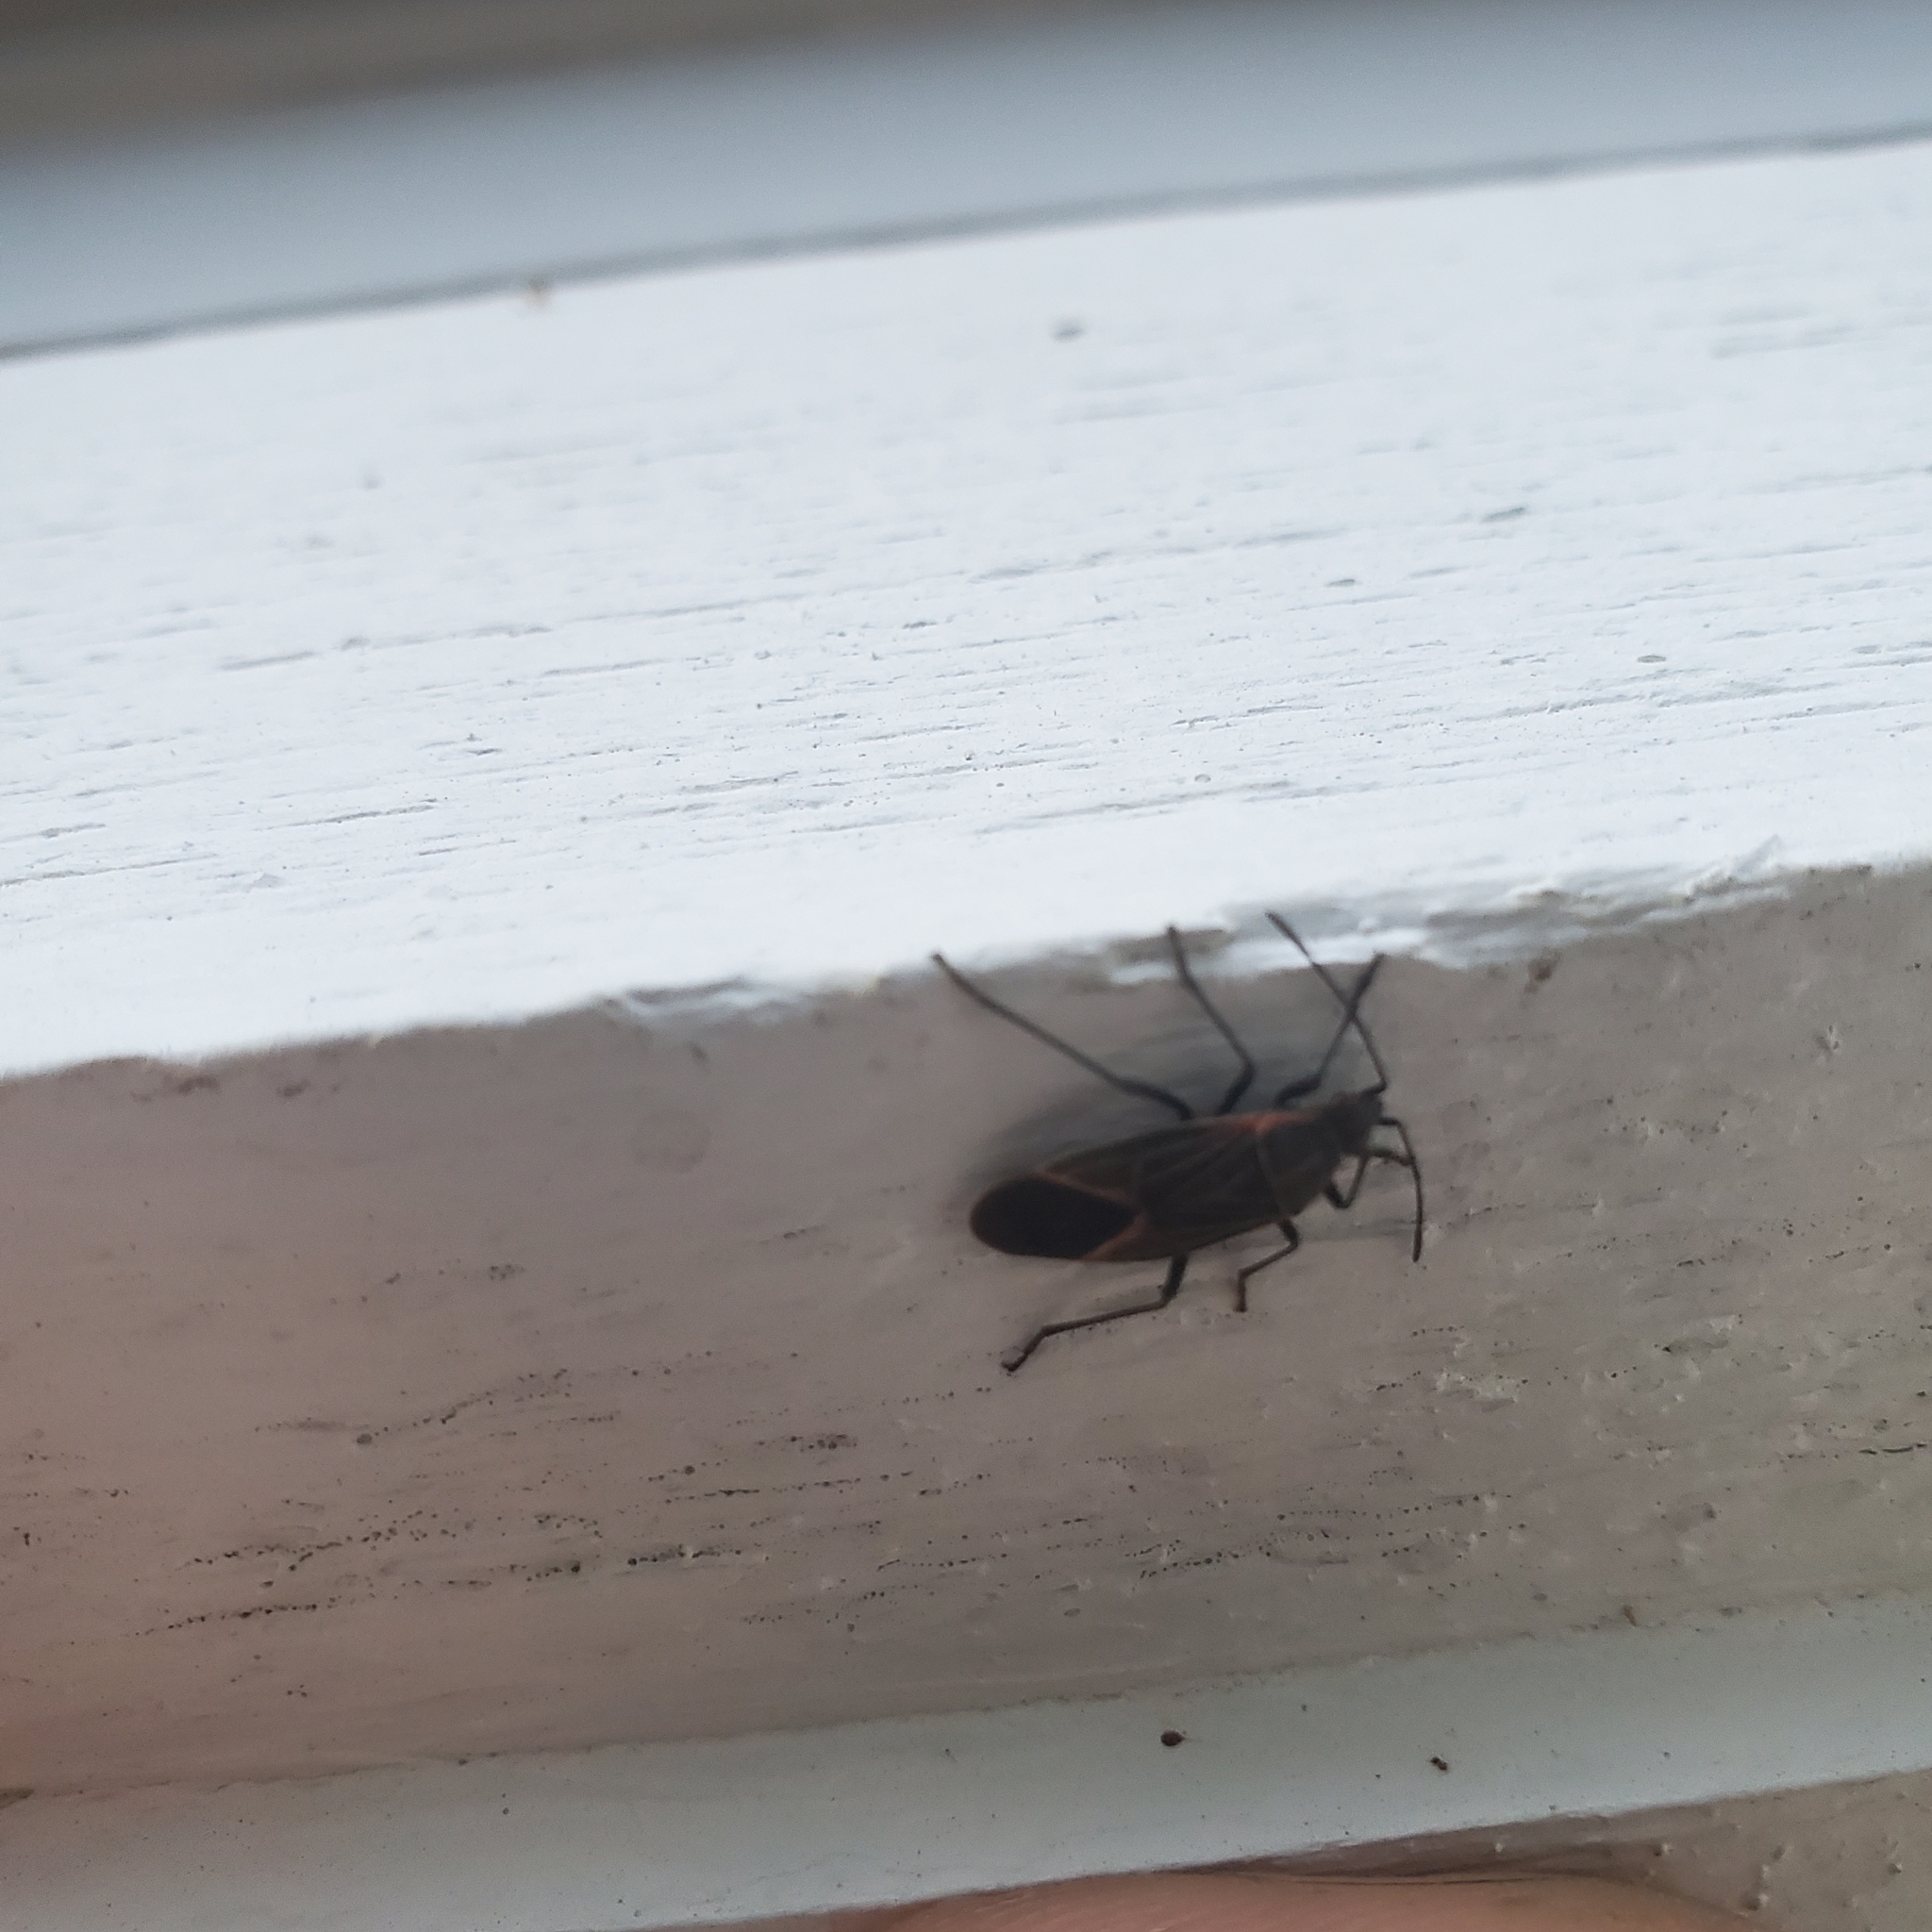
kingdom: Animalia
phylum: Arthropoda
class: Insecta
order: Hemiptera
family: Rhopalidae
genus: Boisea
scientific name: Boisea rubrolineata
